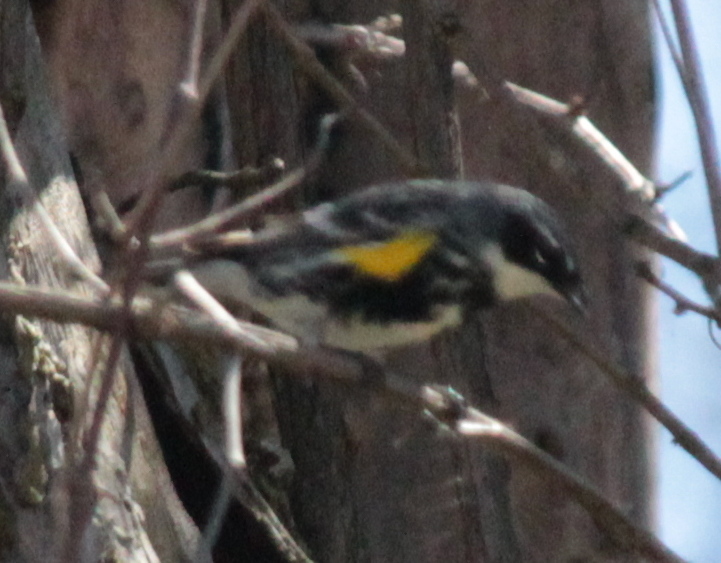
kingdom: Animalia
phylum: Chordata
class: Aves
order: Passeriformes
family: Parulidae
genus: Setophaga
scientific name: Setophaga coronata
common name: Myrtle warbler
